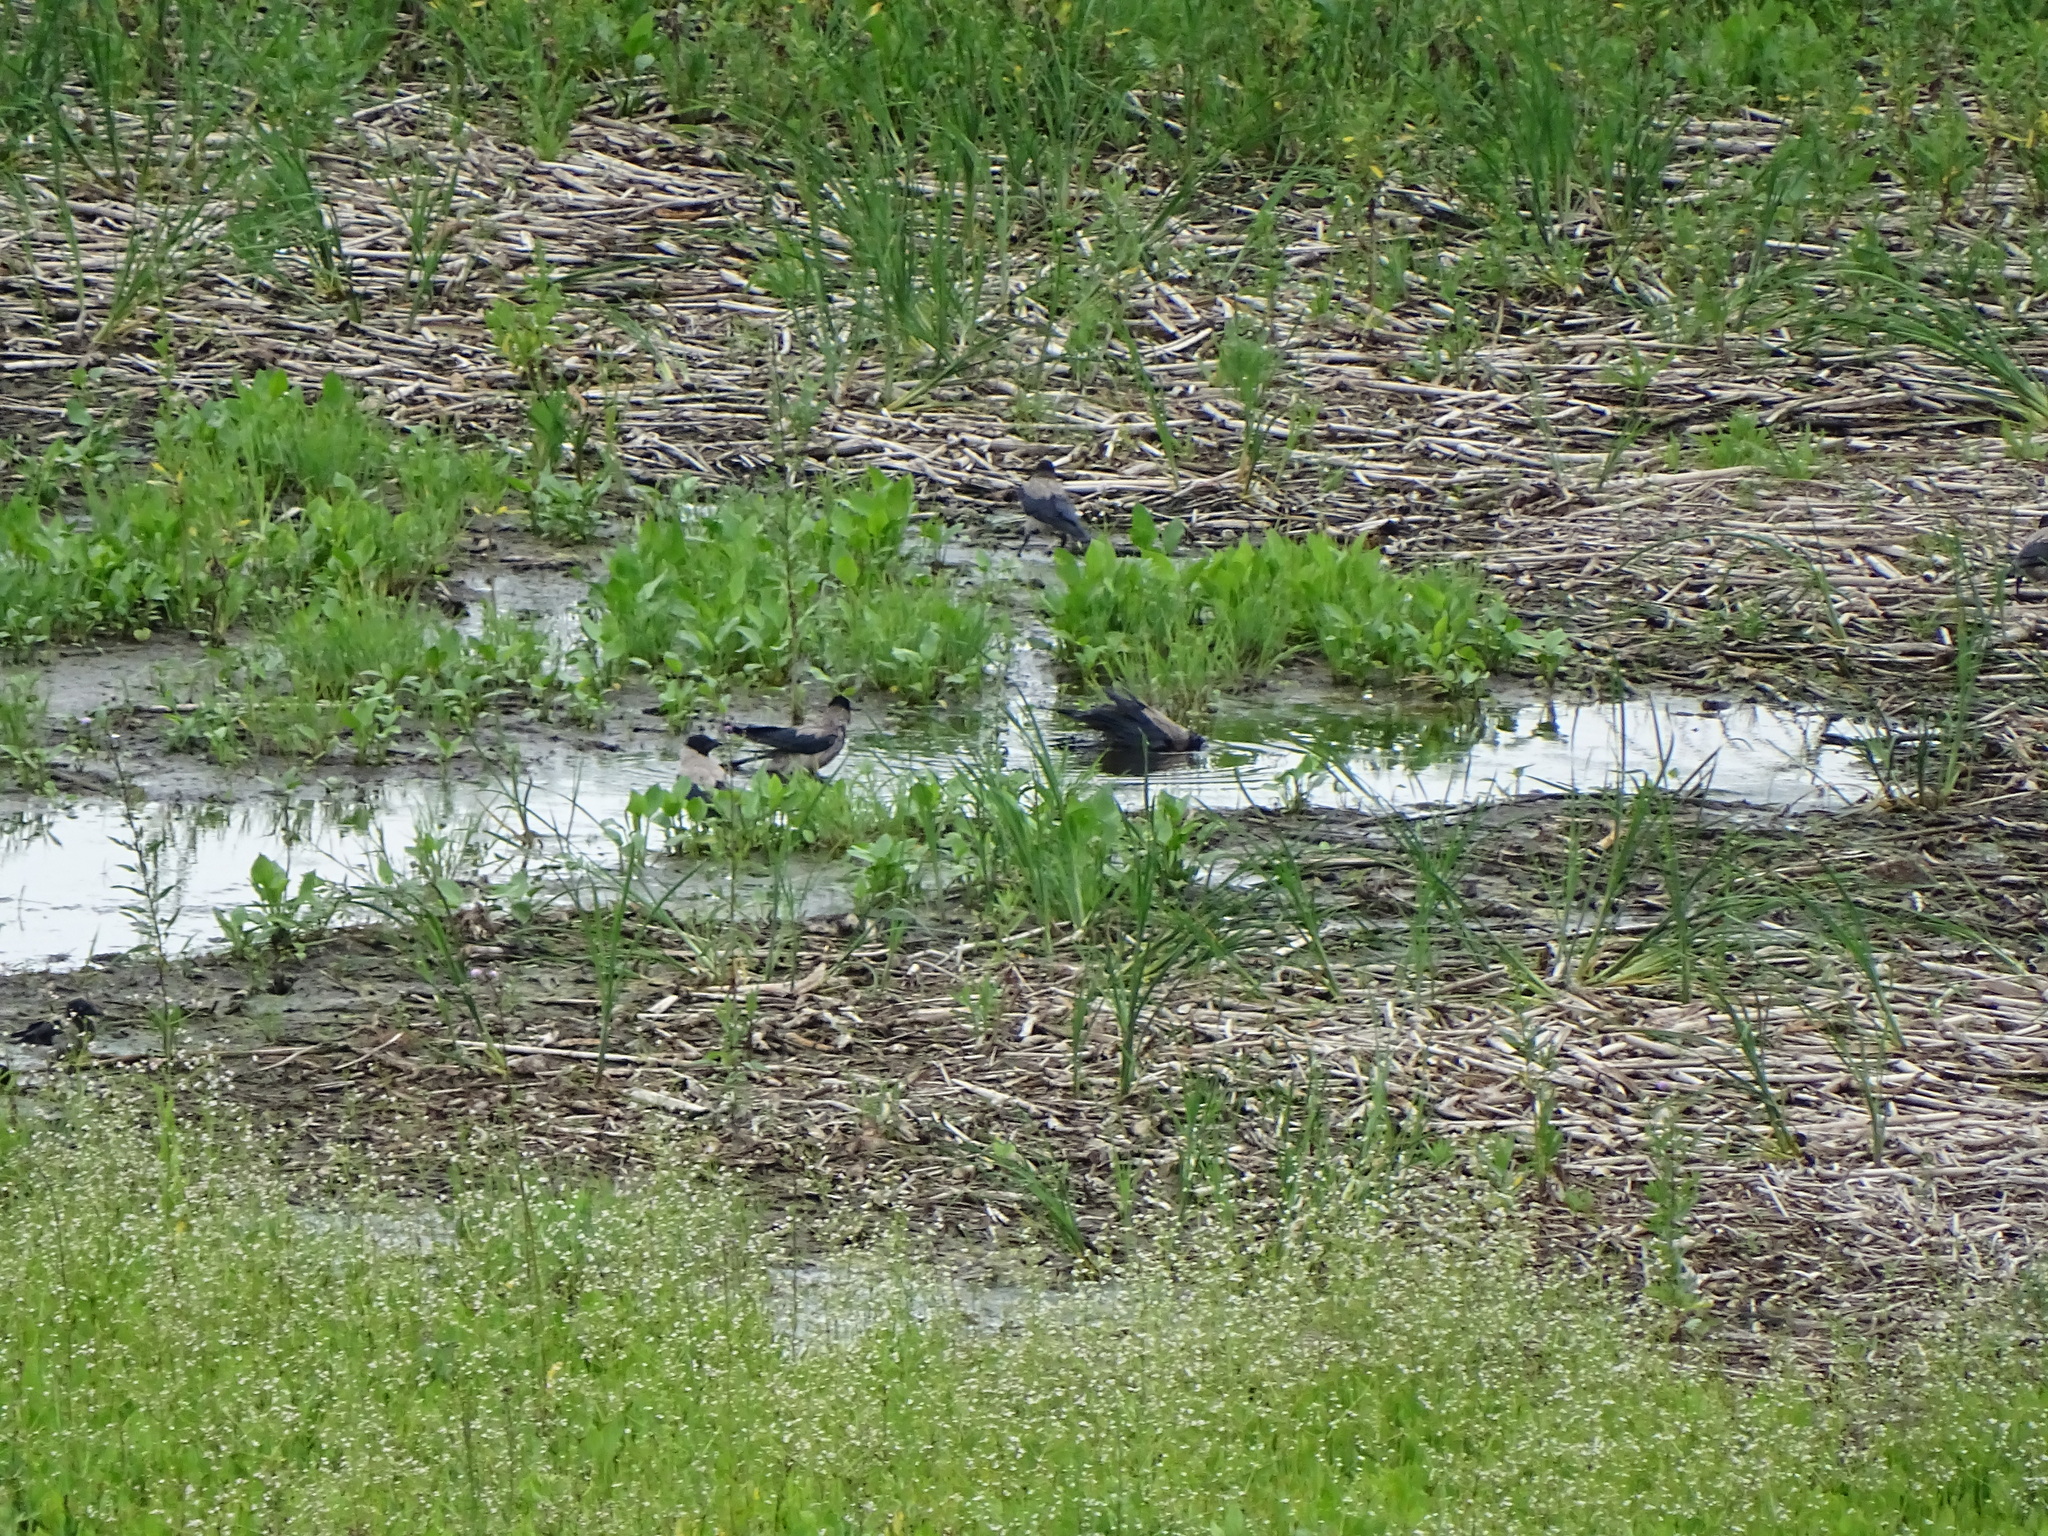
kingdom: Animalia
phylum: Chordata
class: Aves
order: Passeriformes
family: Corvidae
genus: Corvus
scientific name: Corvus cornix
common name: Hooded crow
